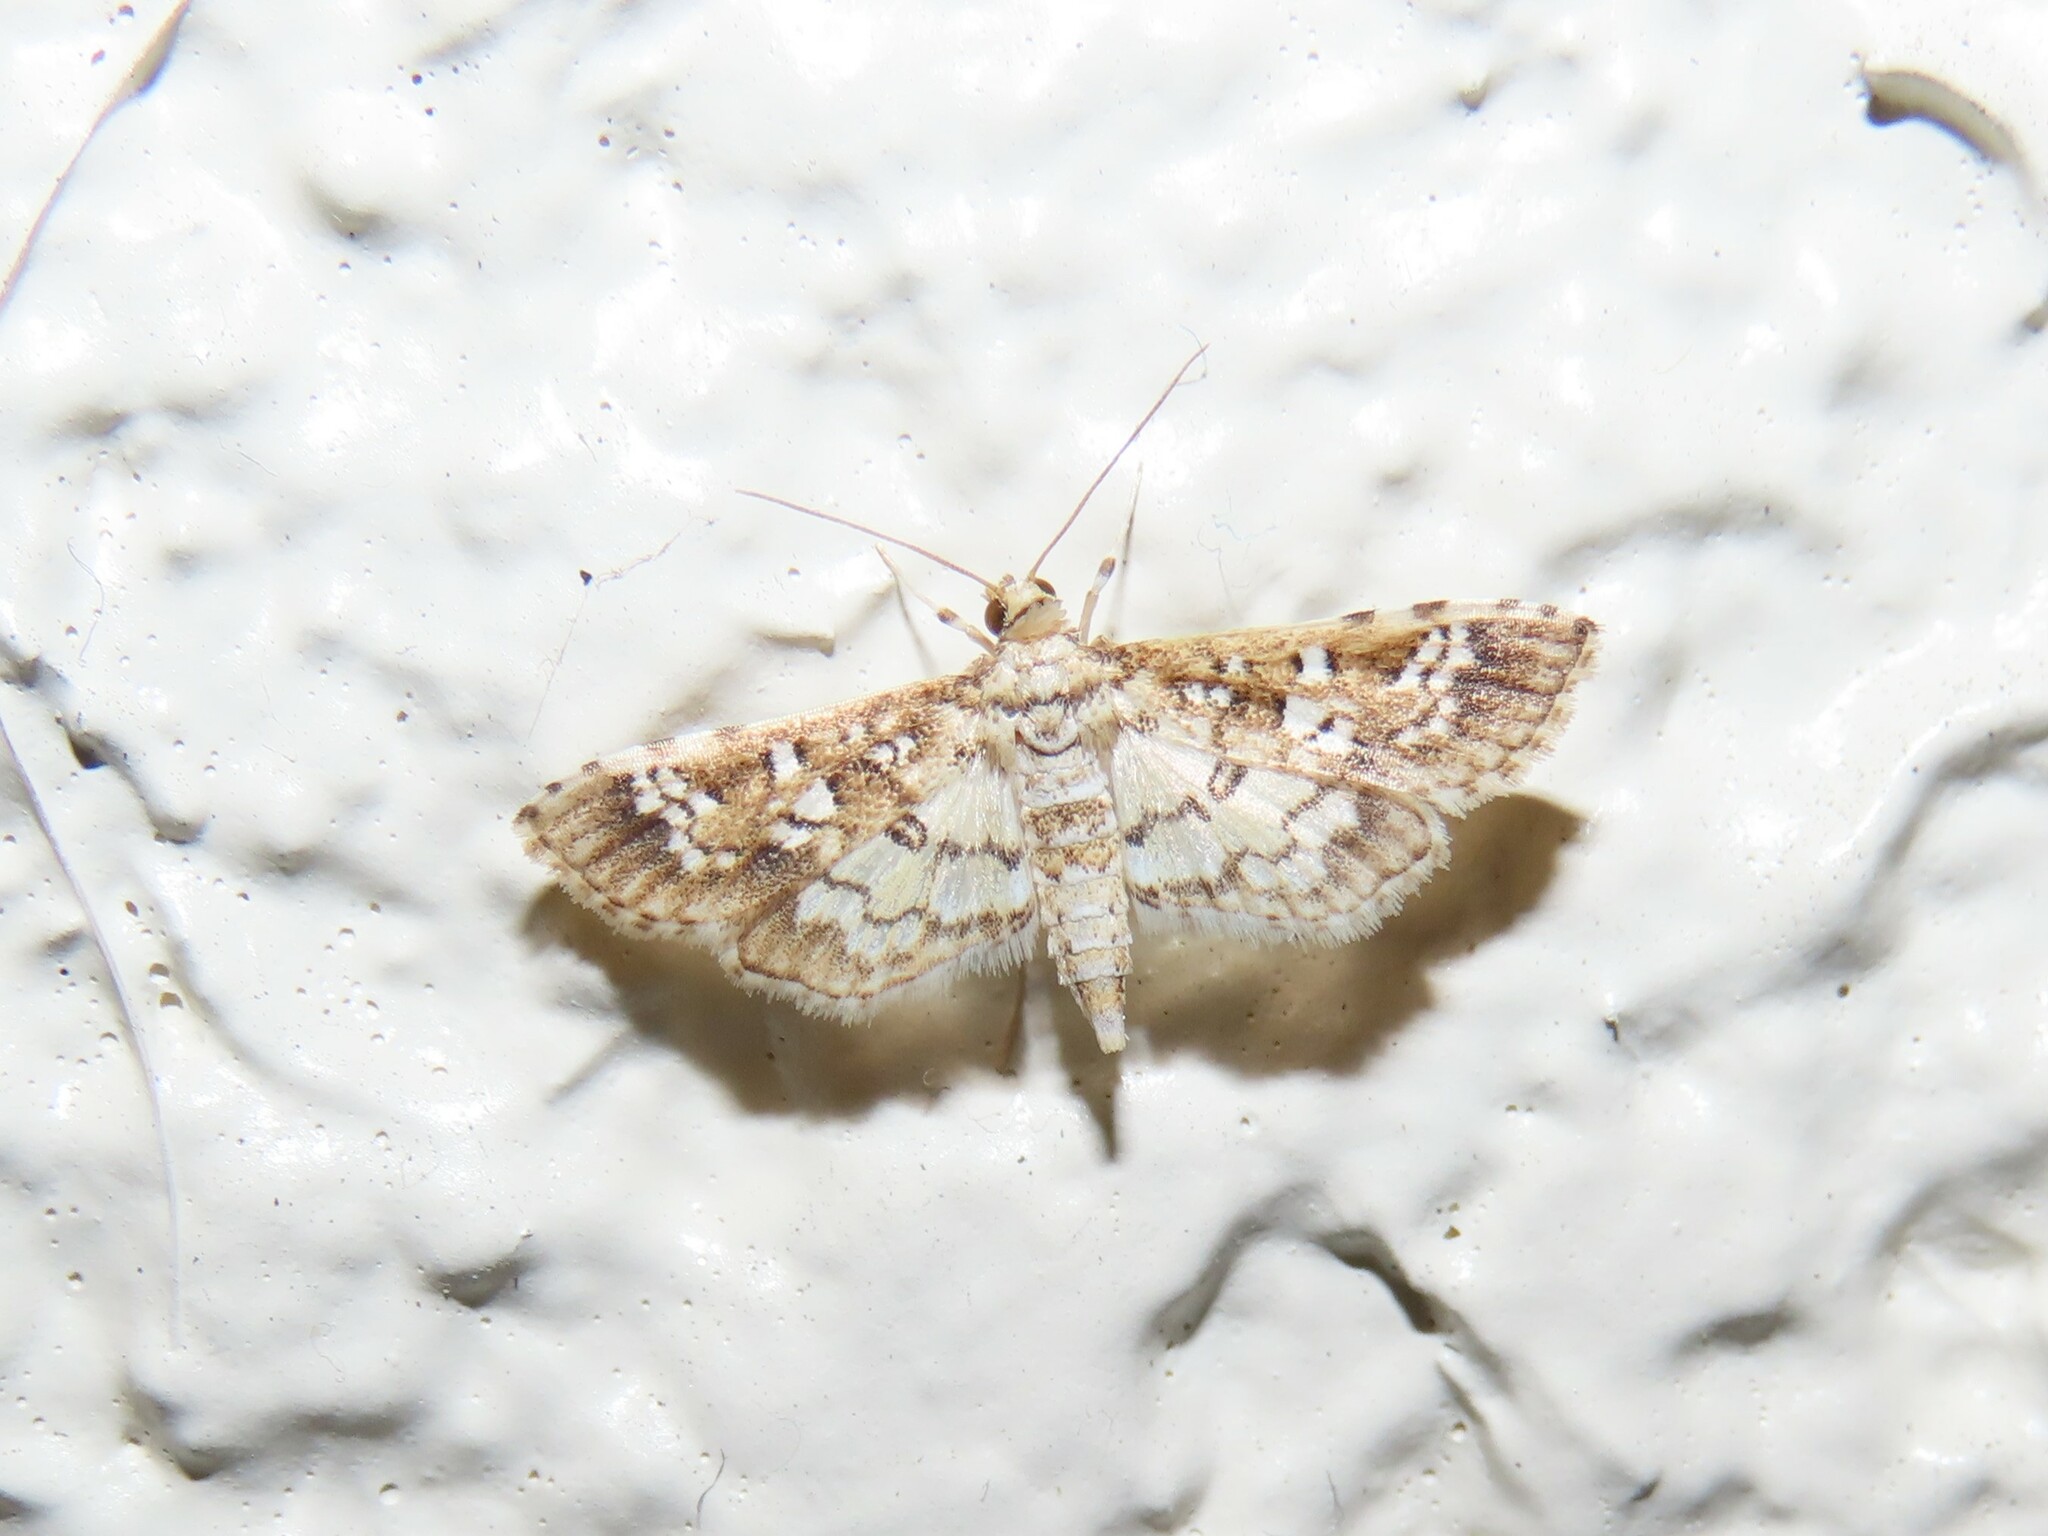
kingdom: Animalia
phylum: Arthropoda
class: Insecta
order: Lepidoptera
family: Crambidae
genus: Samea
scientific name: Samea multiplicalis
